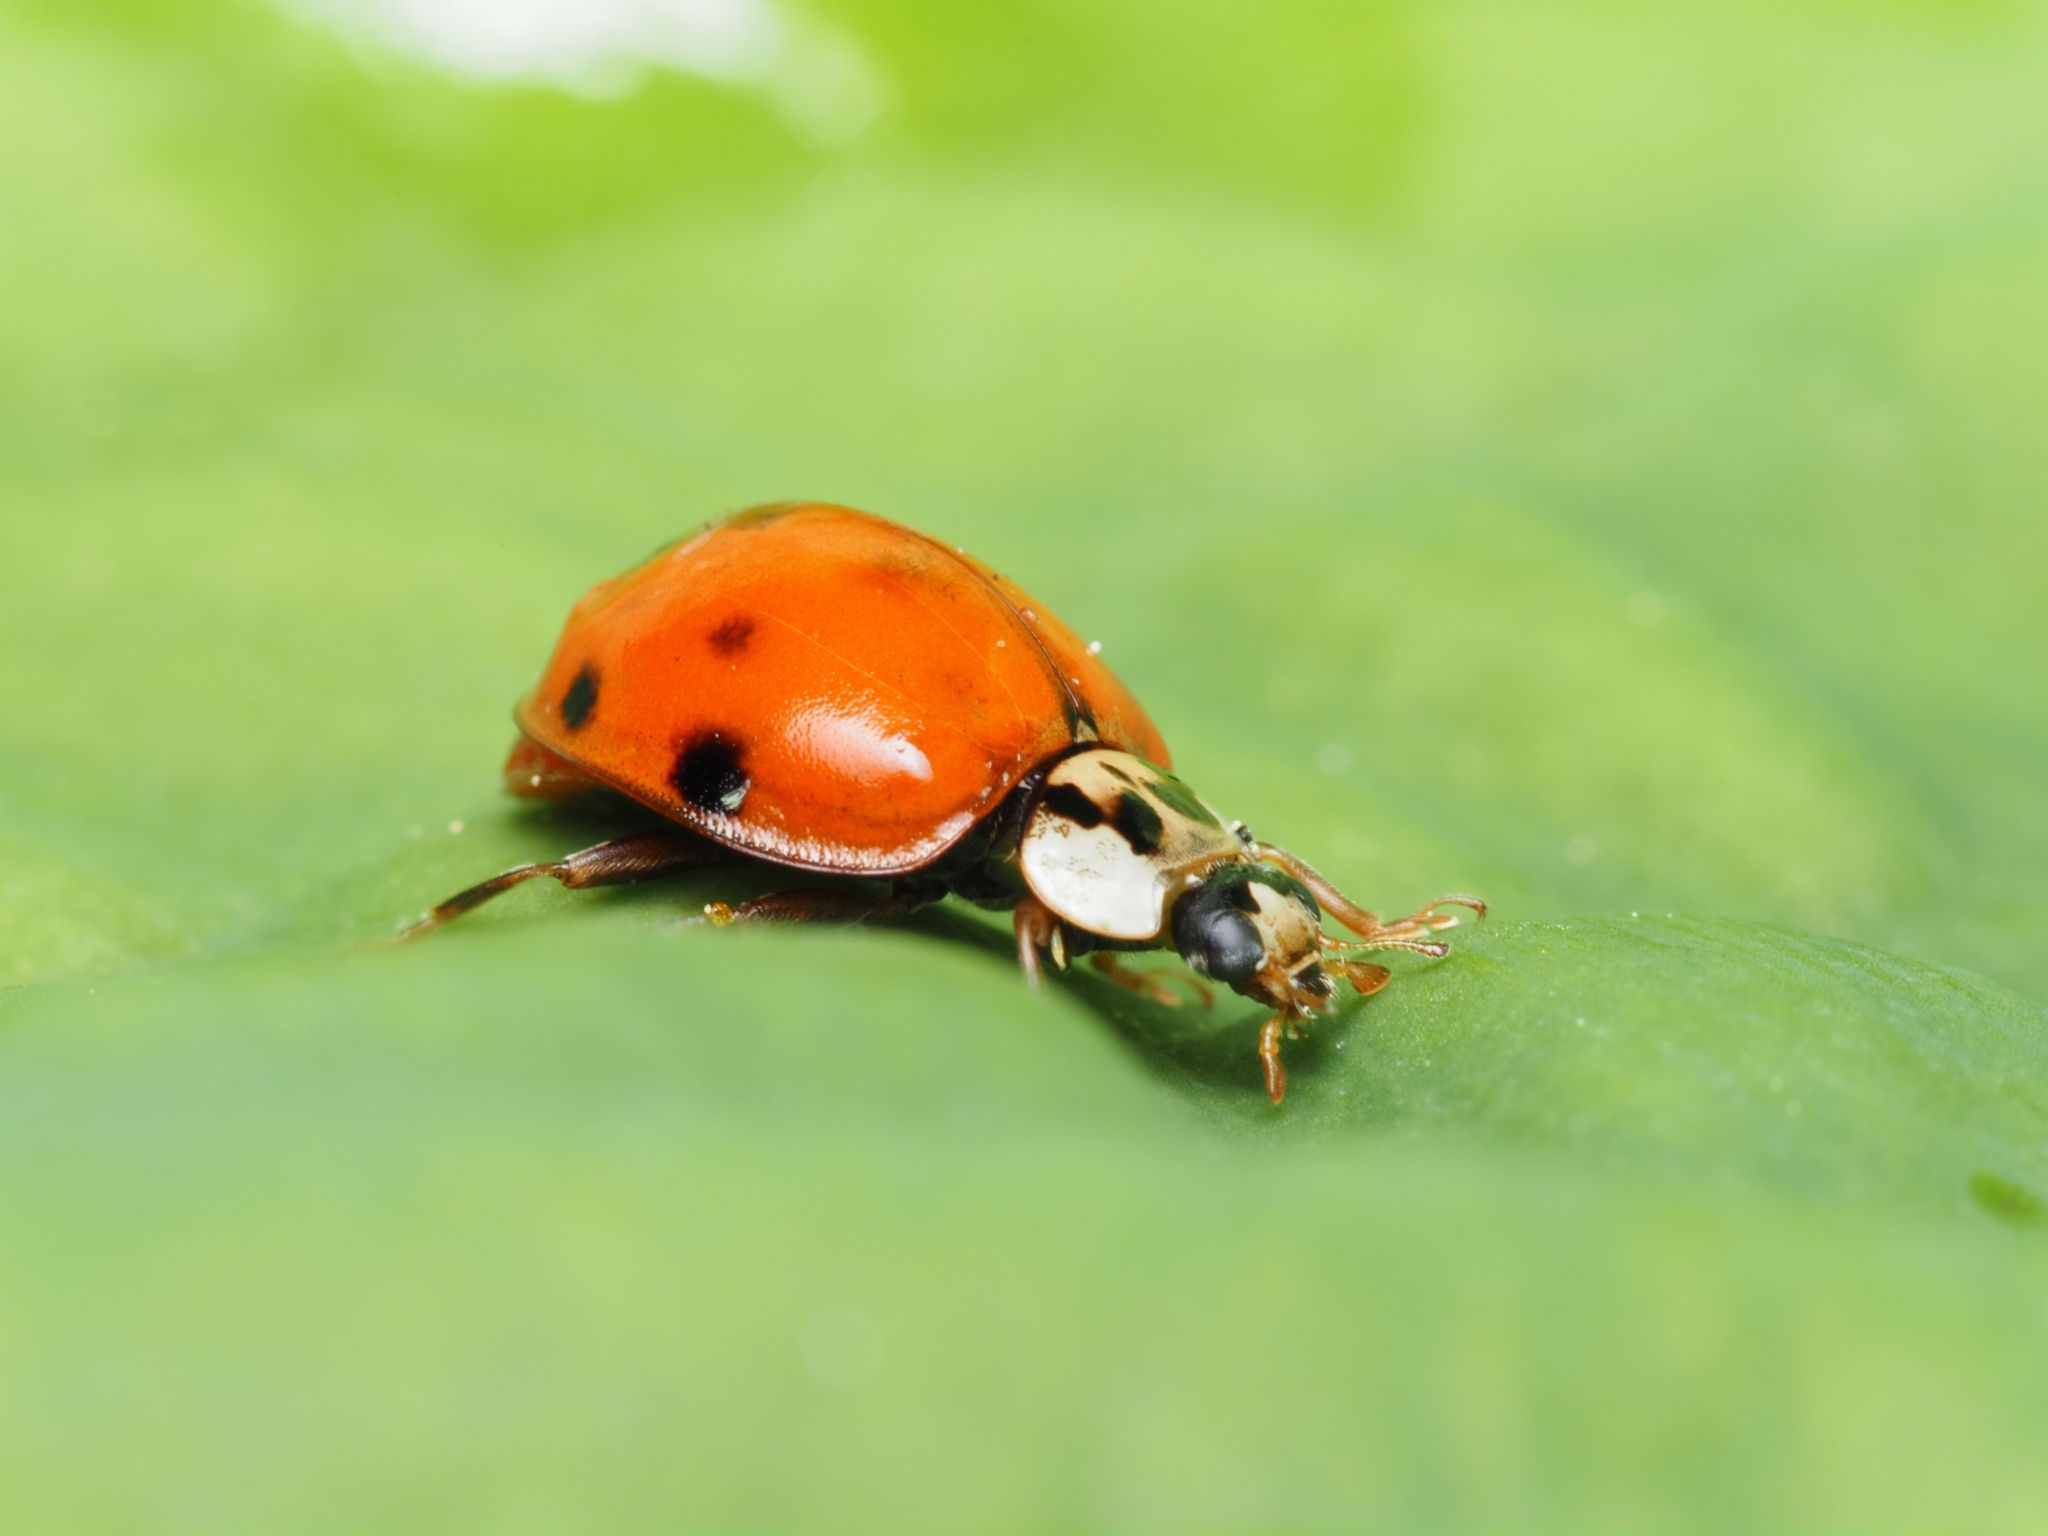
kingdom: Animalia
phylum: Arthropoda
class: Insecta
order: Coleoptera
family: Coccinellidae
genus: Harmonia
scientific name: Harmonia axyridis
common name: Harlequin ladybird
